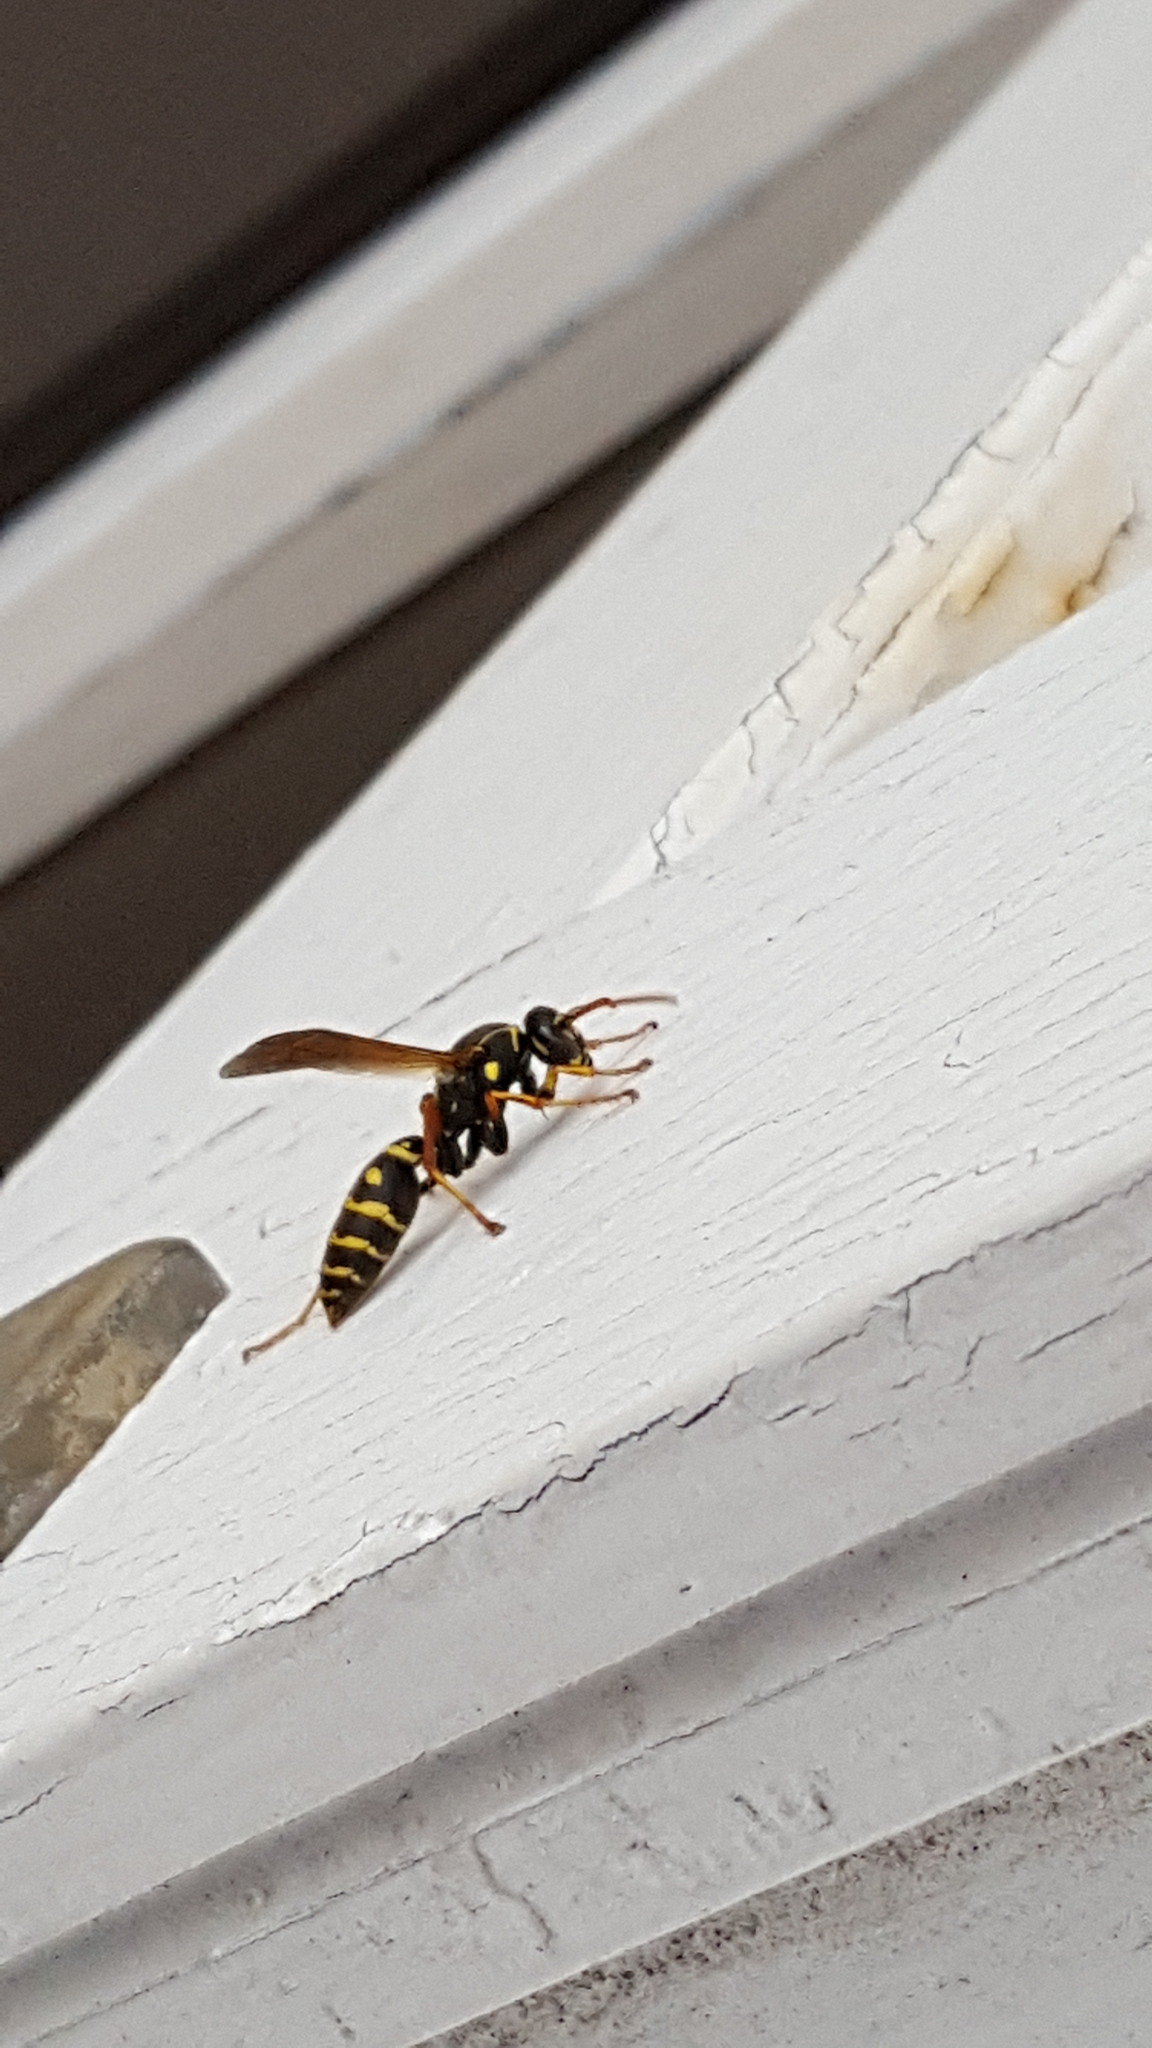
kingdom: Animalia
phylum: Arthropoda
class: Insecta
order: Hymenoptera
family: Eumenidae
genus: Polistes
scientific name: Polistes chinensis
